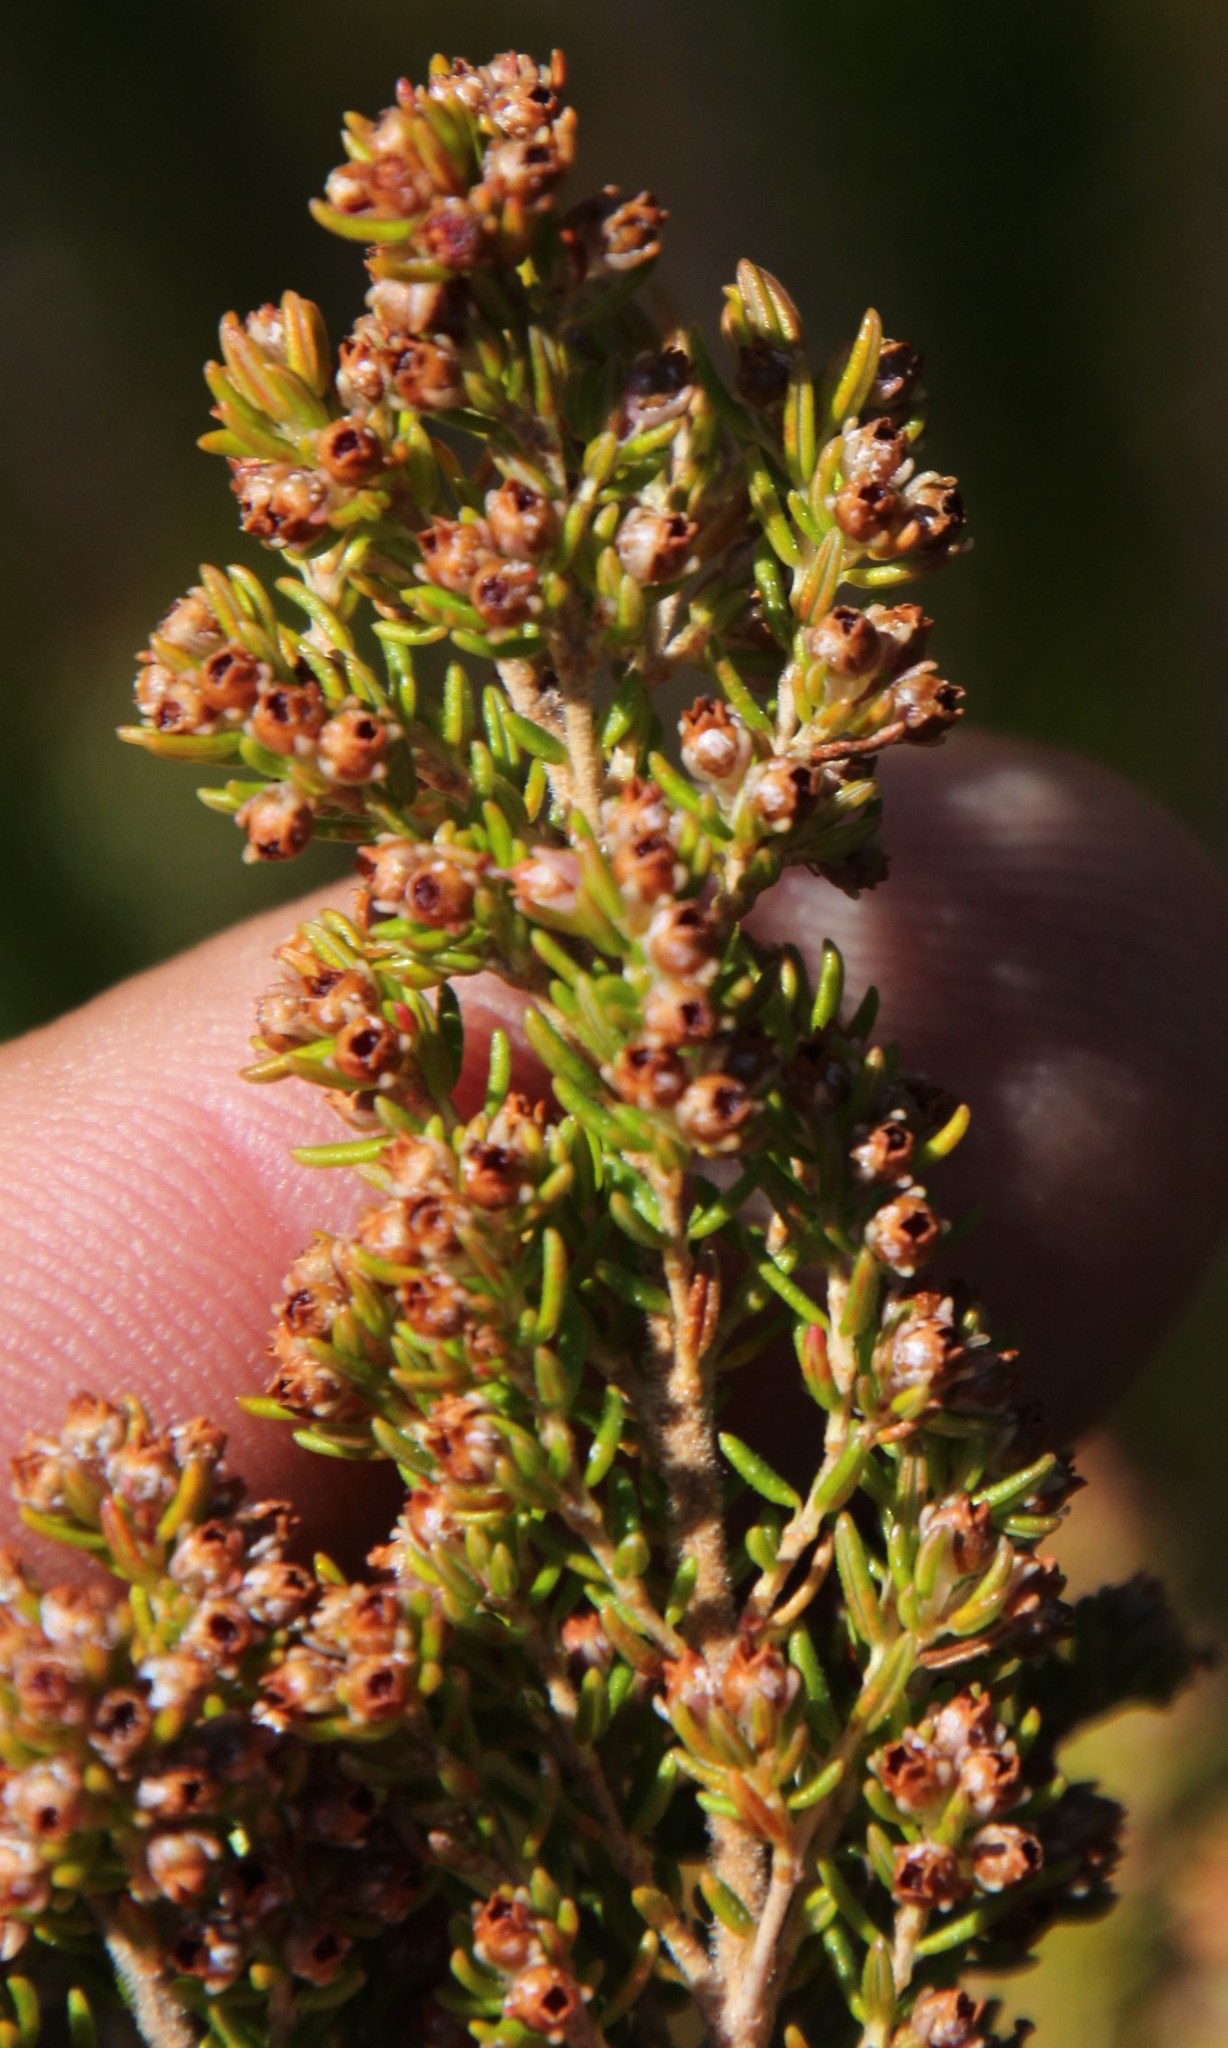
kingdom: Plantae
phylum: Tracheophyta
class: Magnoliopsida
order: Ericales
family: Ericaceae
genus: Erica
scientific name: Erica hispidula
